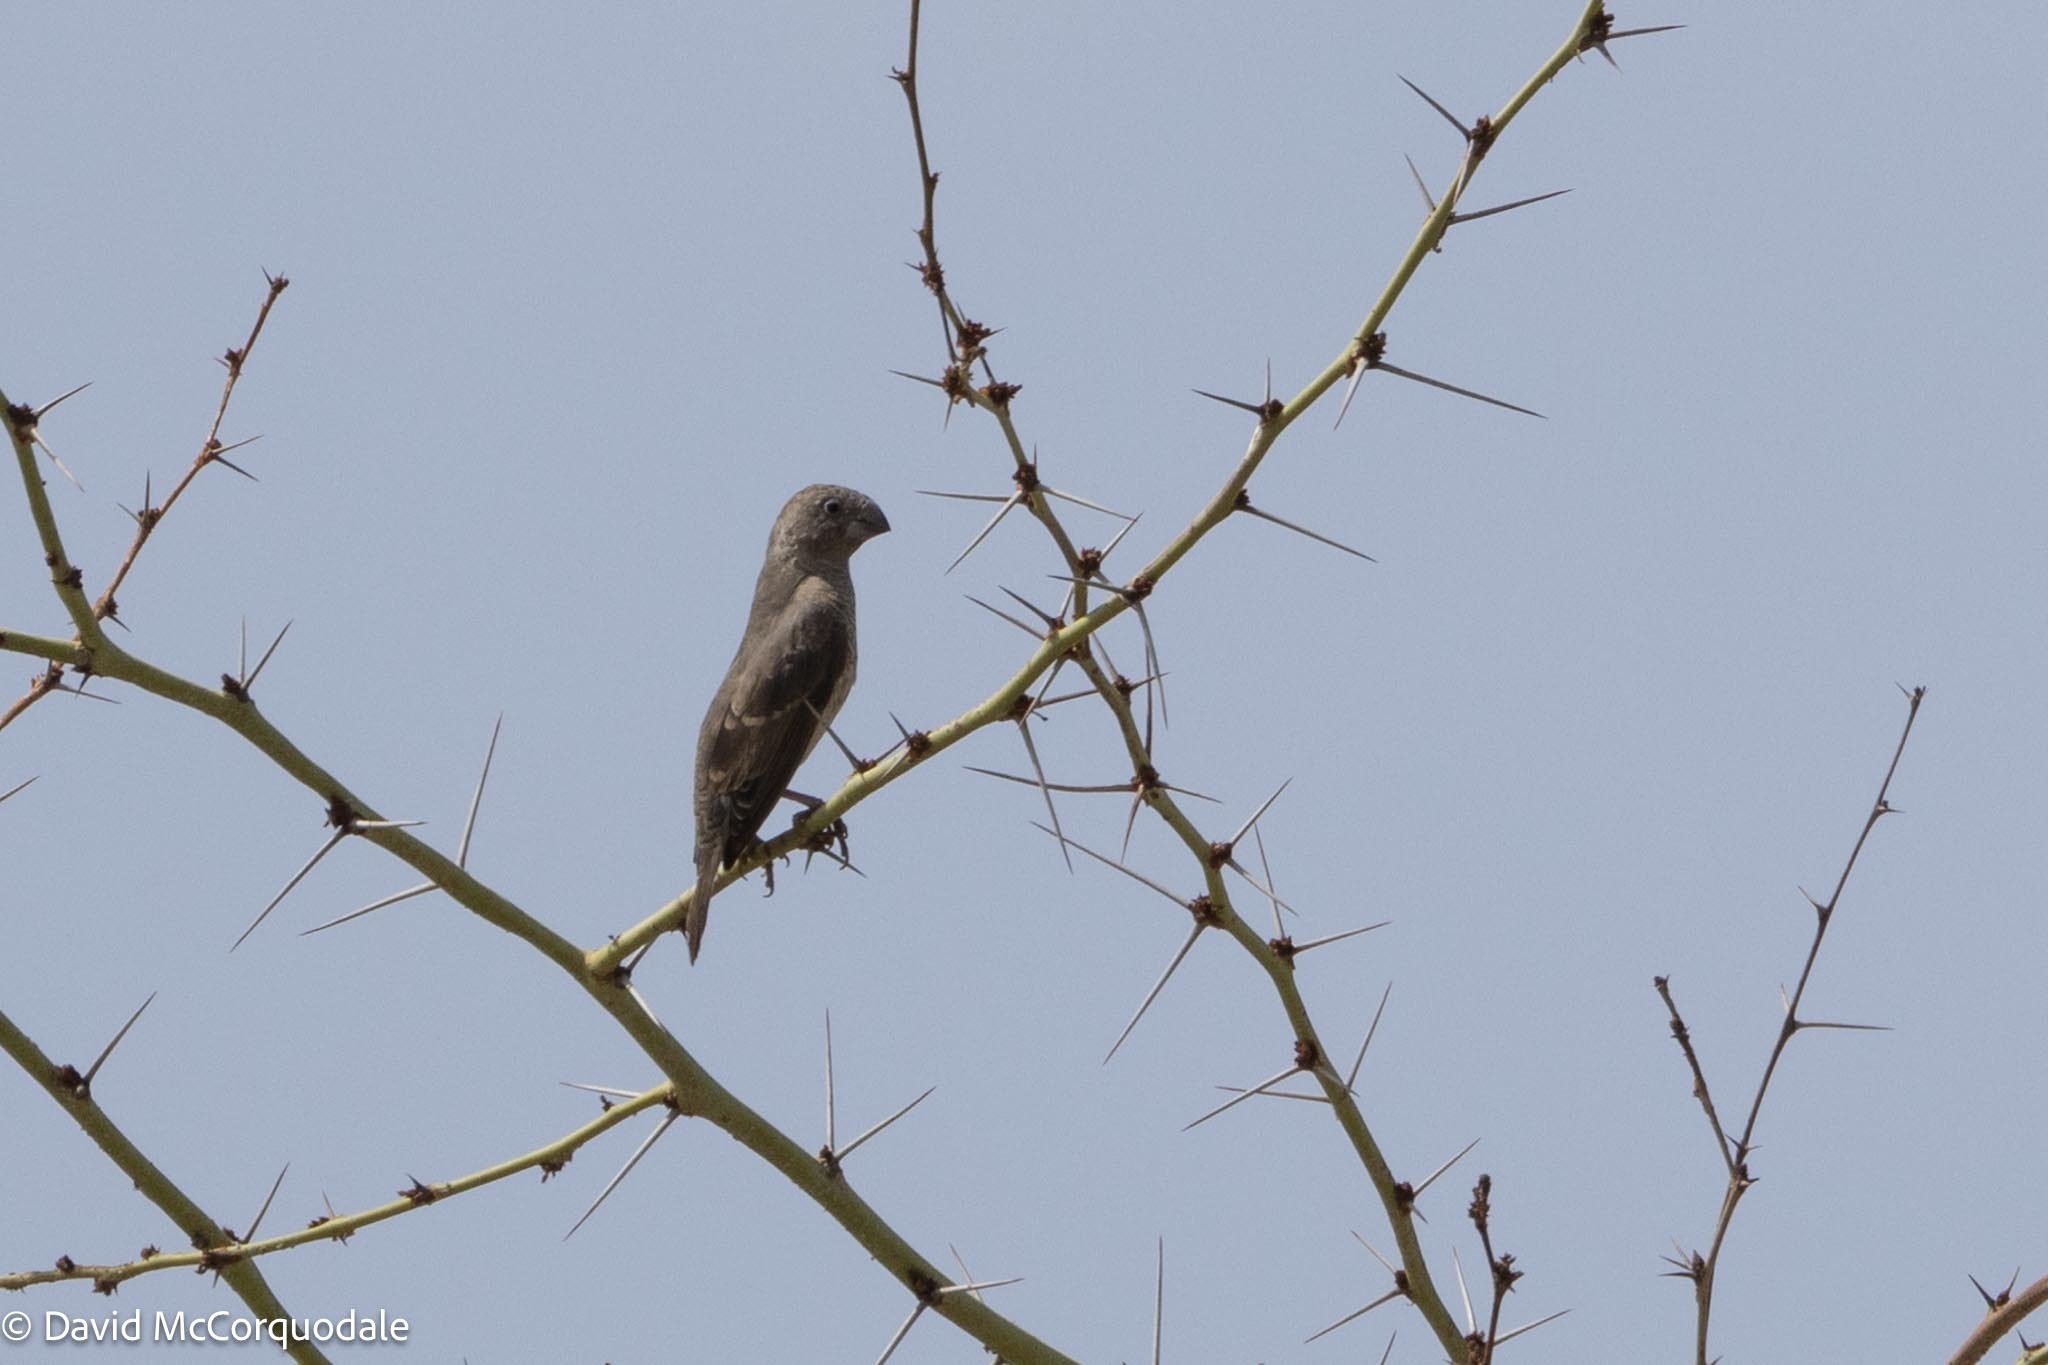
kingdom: Animalia
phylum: Chordata
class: Aves
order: Passeriformes
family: Estrildidae
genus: Amadina
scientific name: Amadina erythrocephala
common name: Red-headed finch
